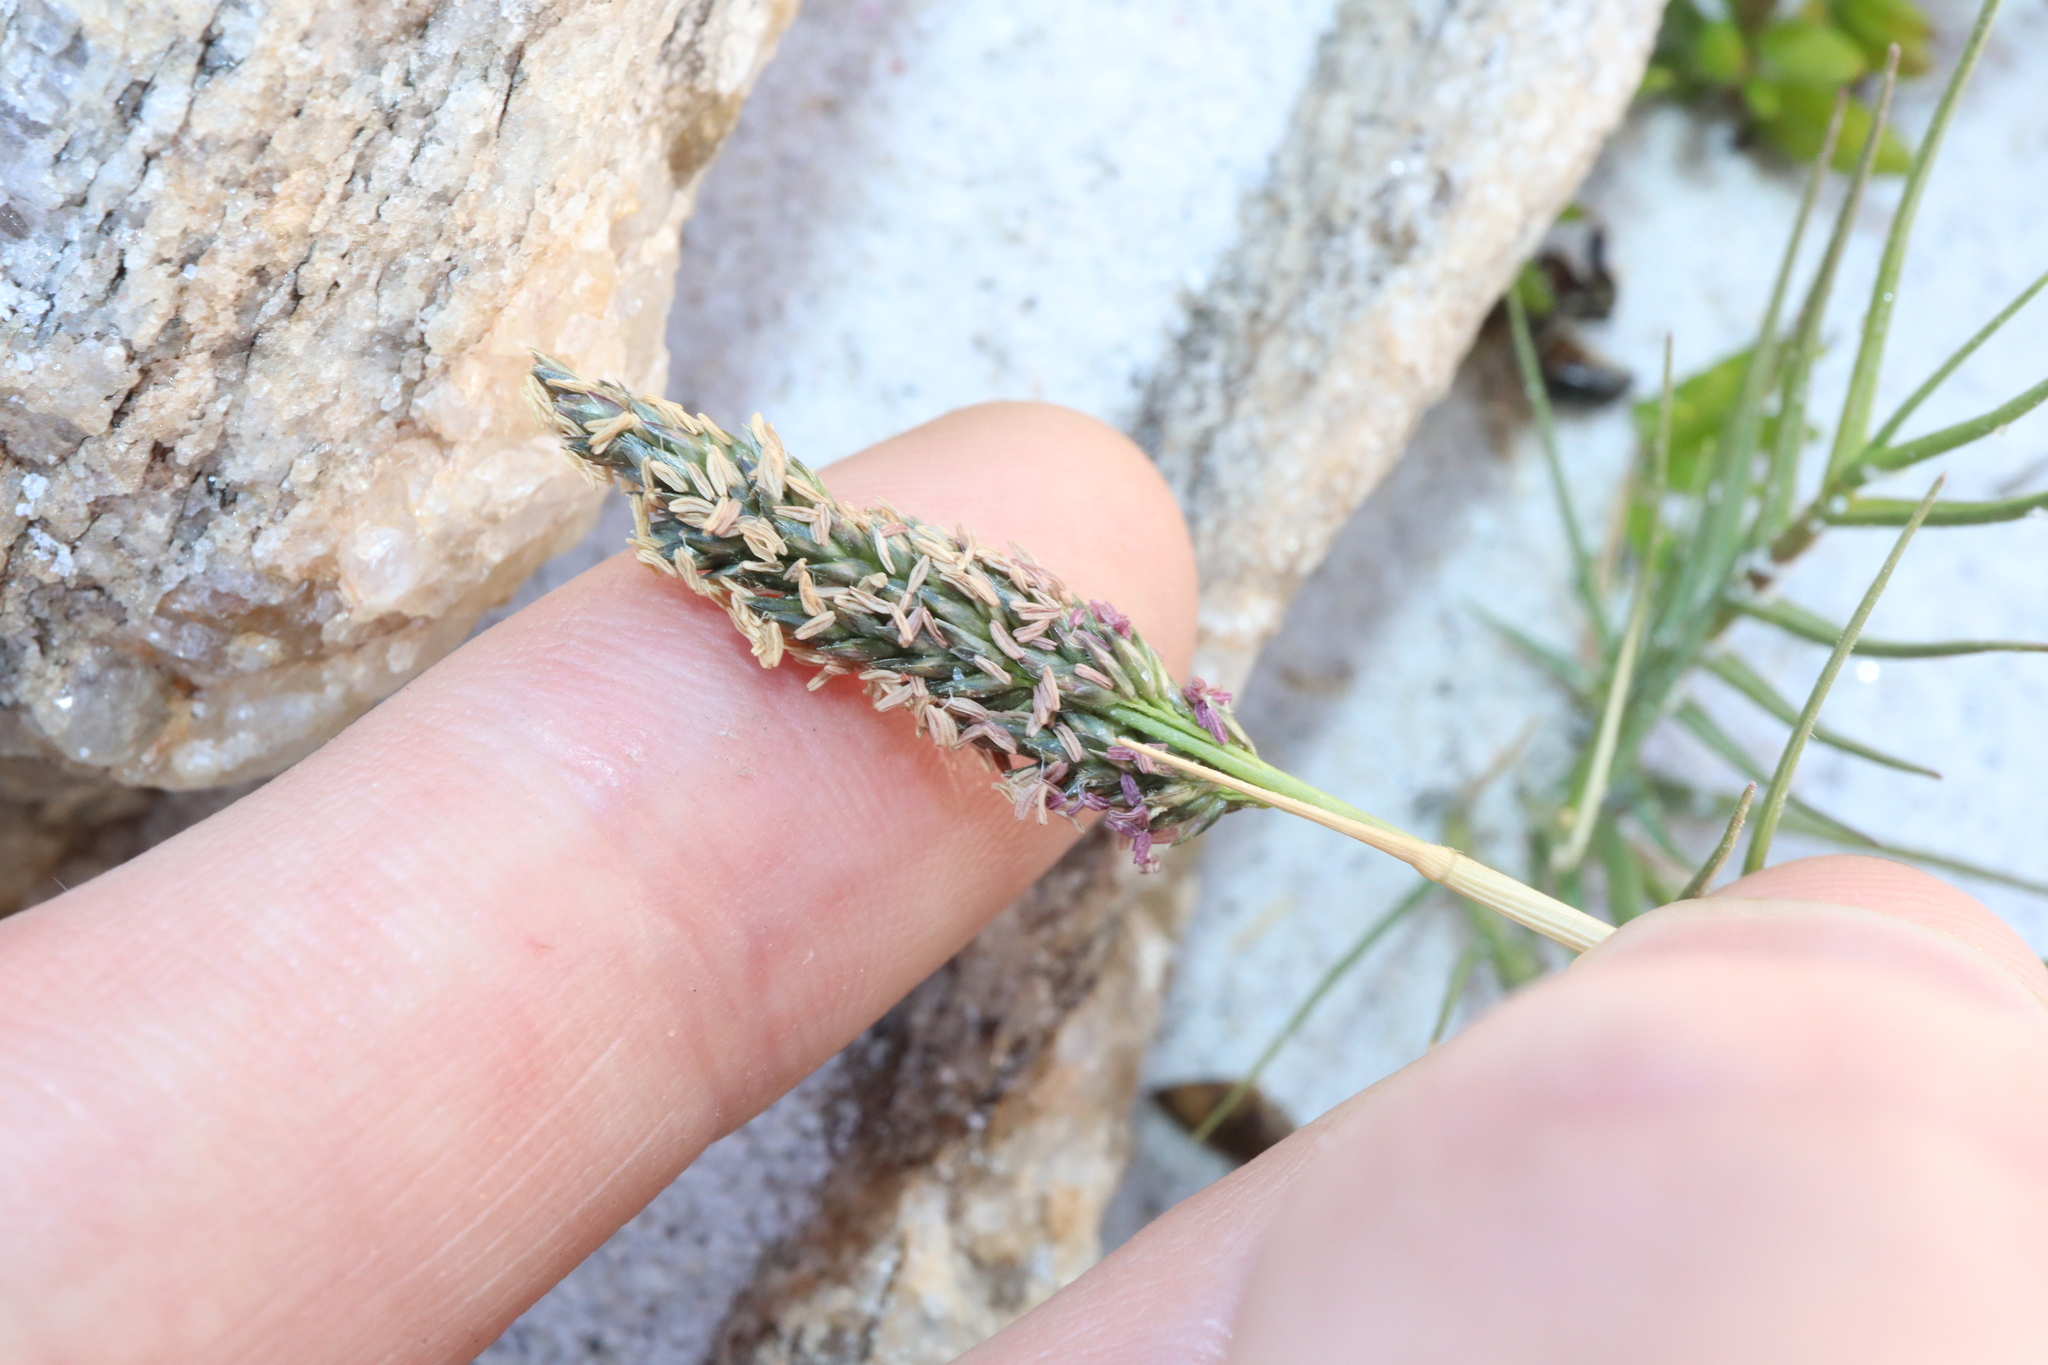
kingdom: Plantae
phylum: Tracheophyta
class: Liliopsida
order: Poales
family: Poaceae
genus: Sporobolus
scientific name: Sporobolus virginicus
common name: Beach dropseed
